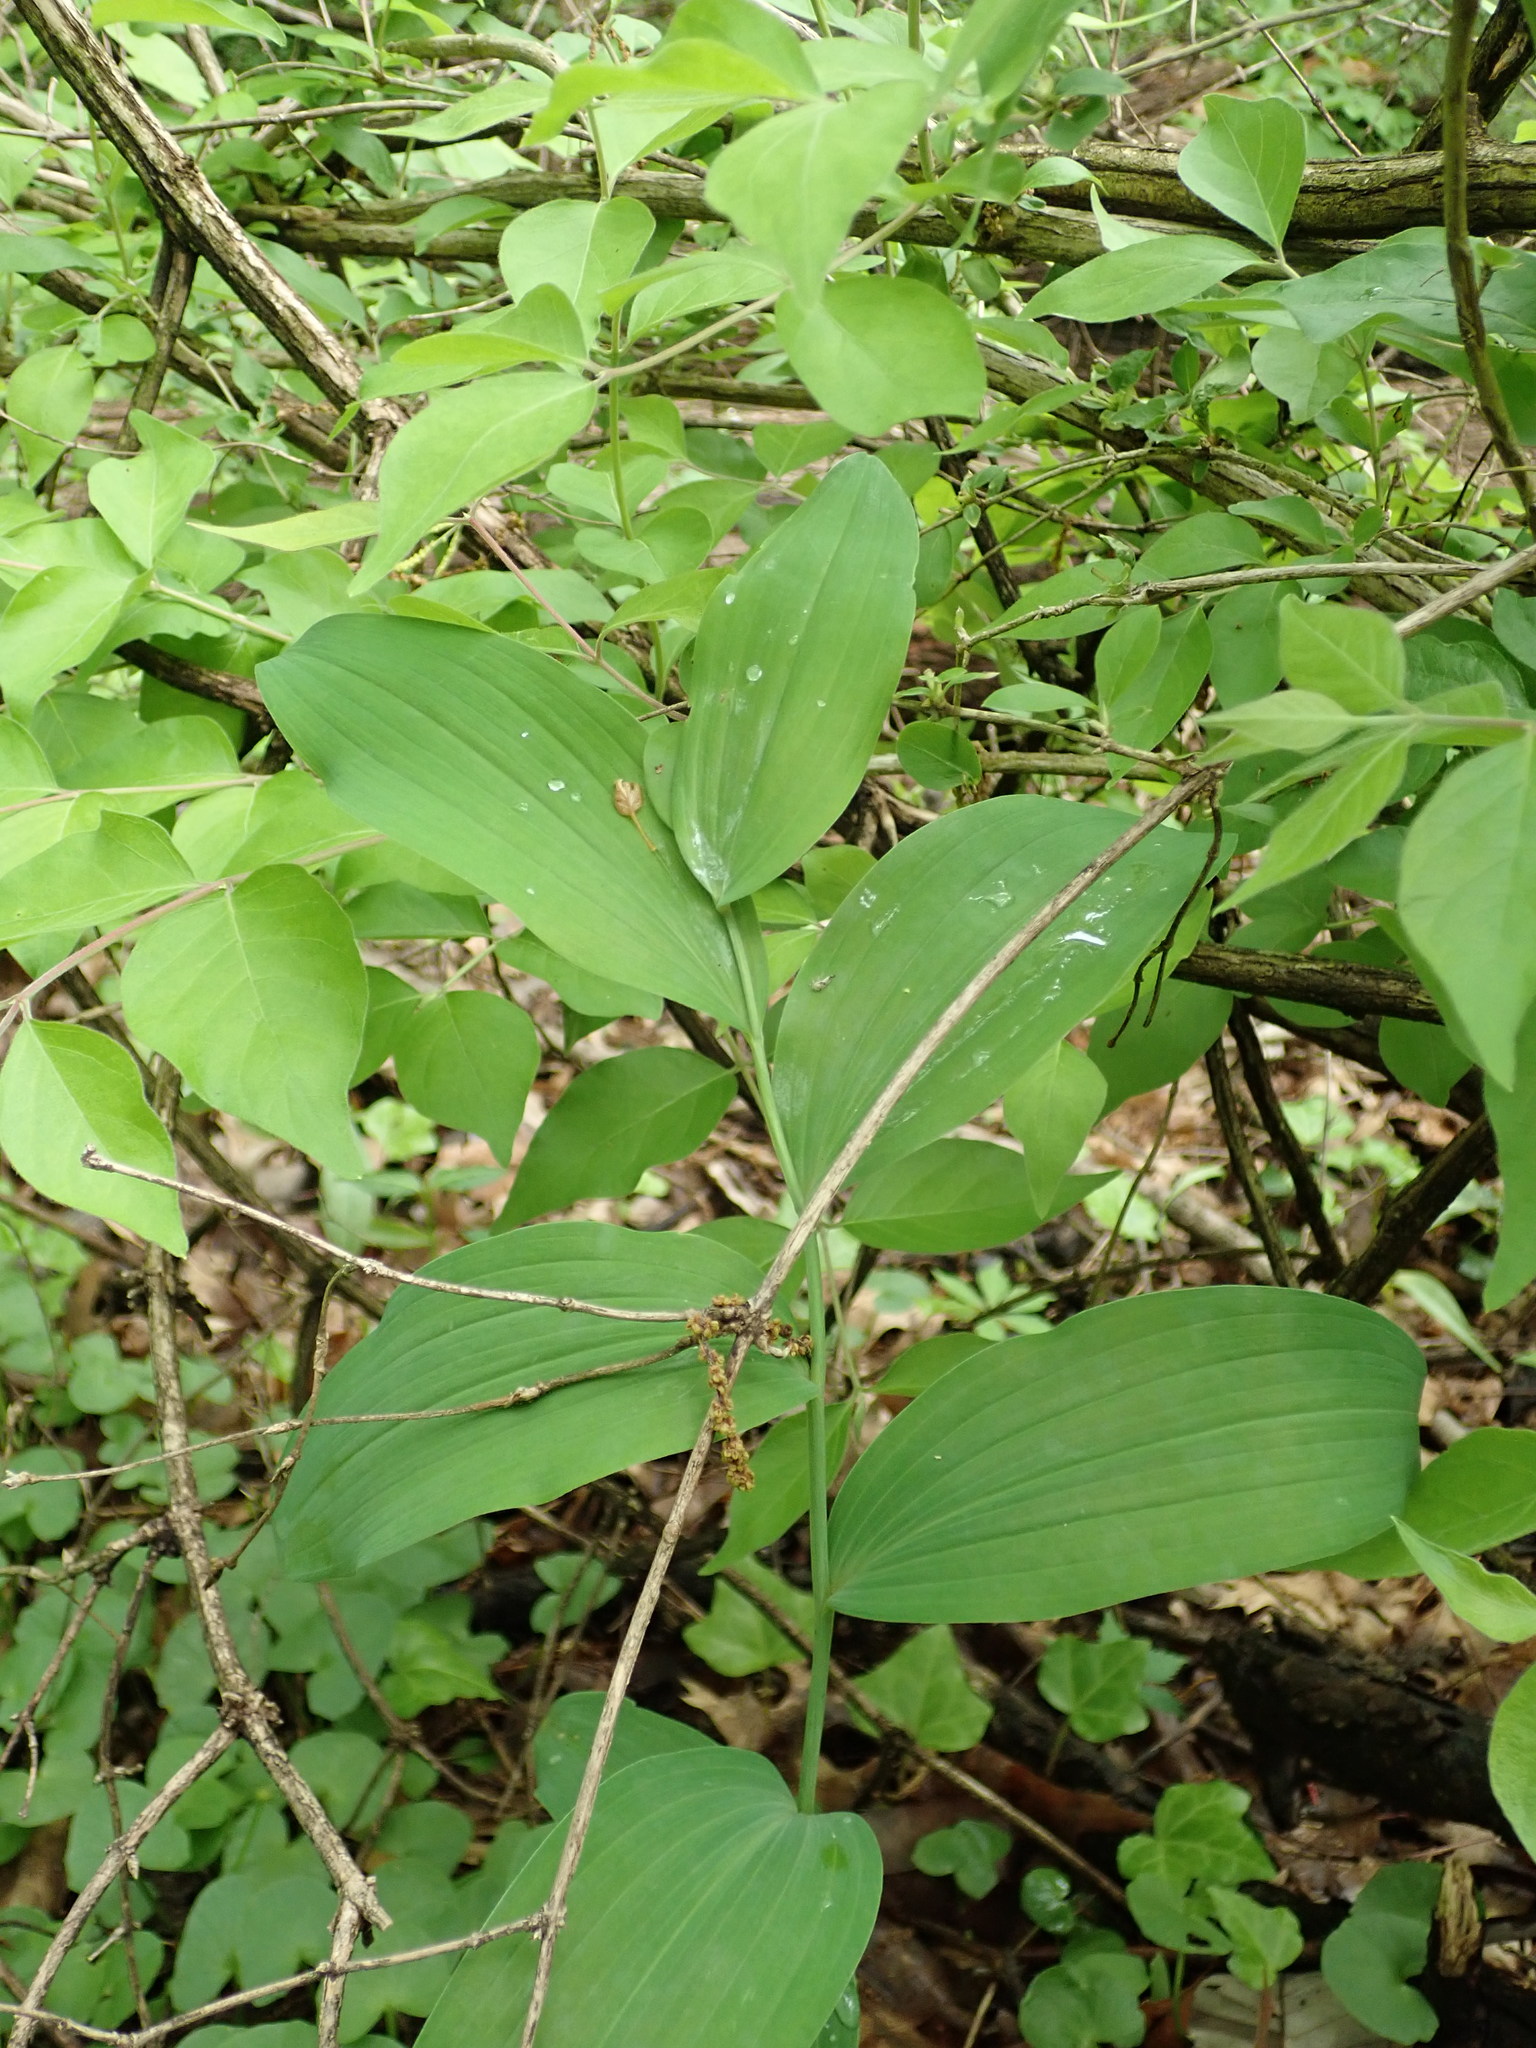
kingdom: Plantae
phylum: Tracheophyta
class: Liliopsida
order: Asparagales
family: Asparagaceae
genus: Polygonatum
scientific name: Polygonatum biflorum
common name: American solomon's-seal
